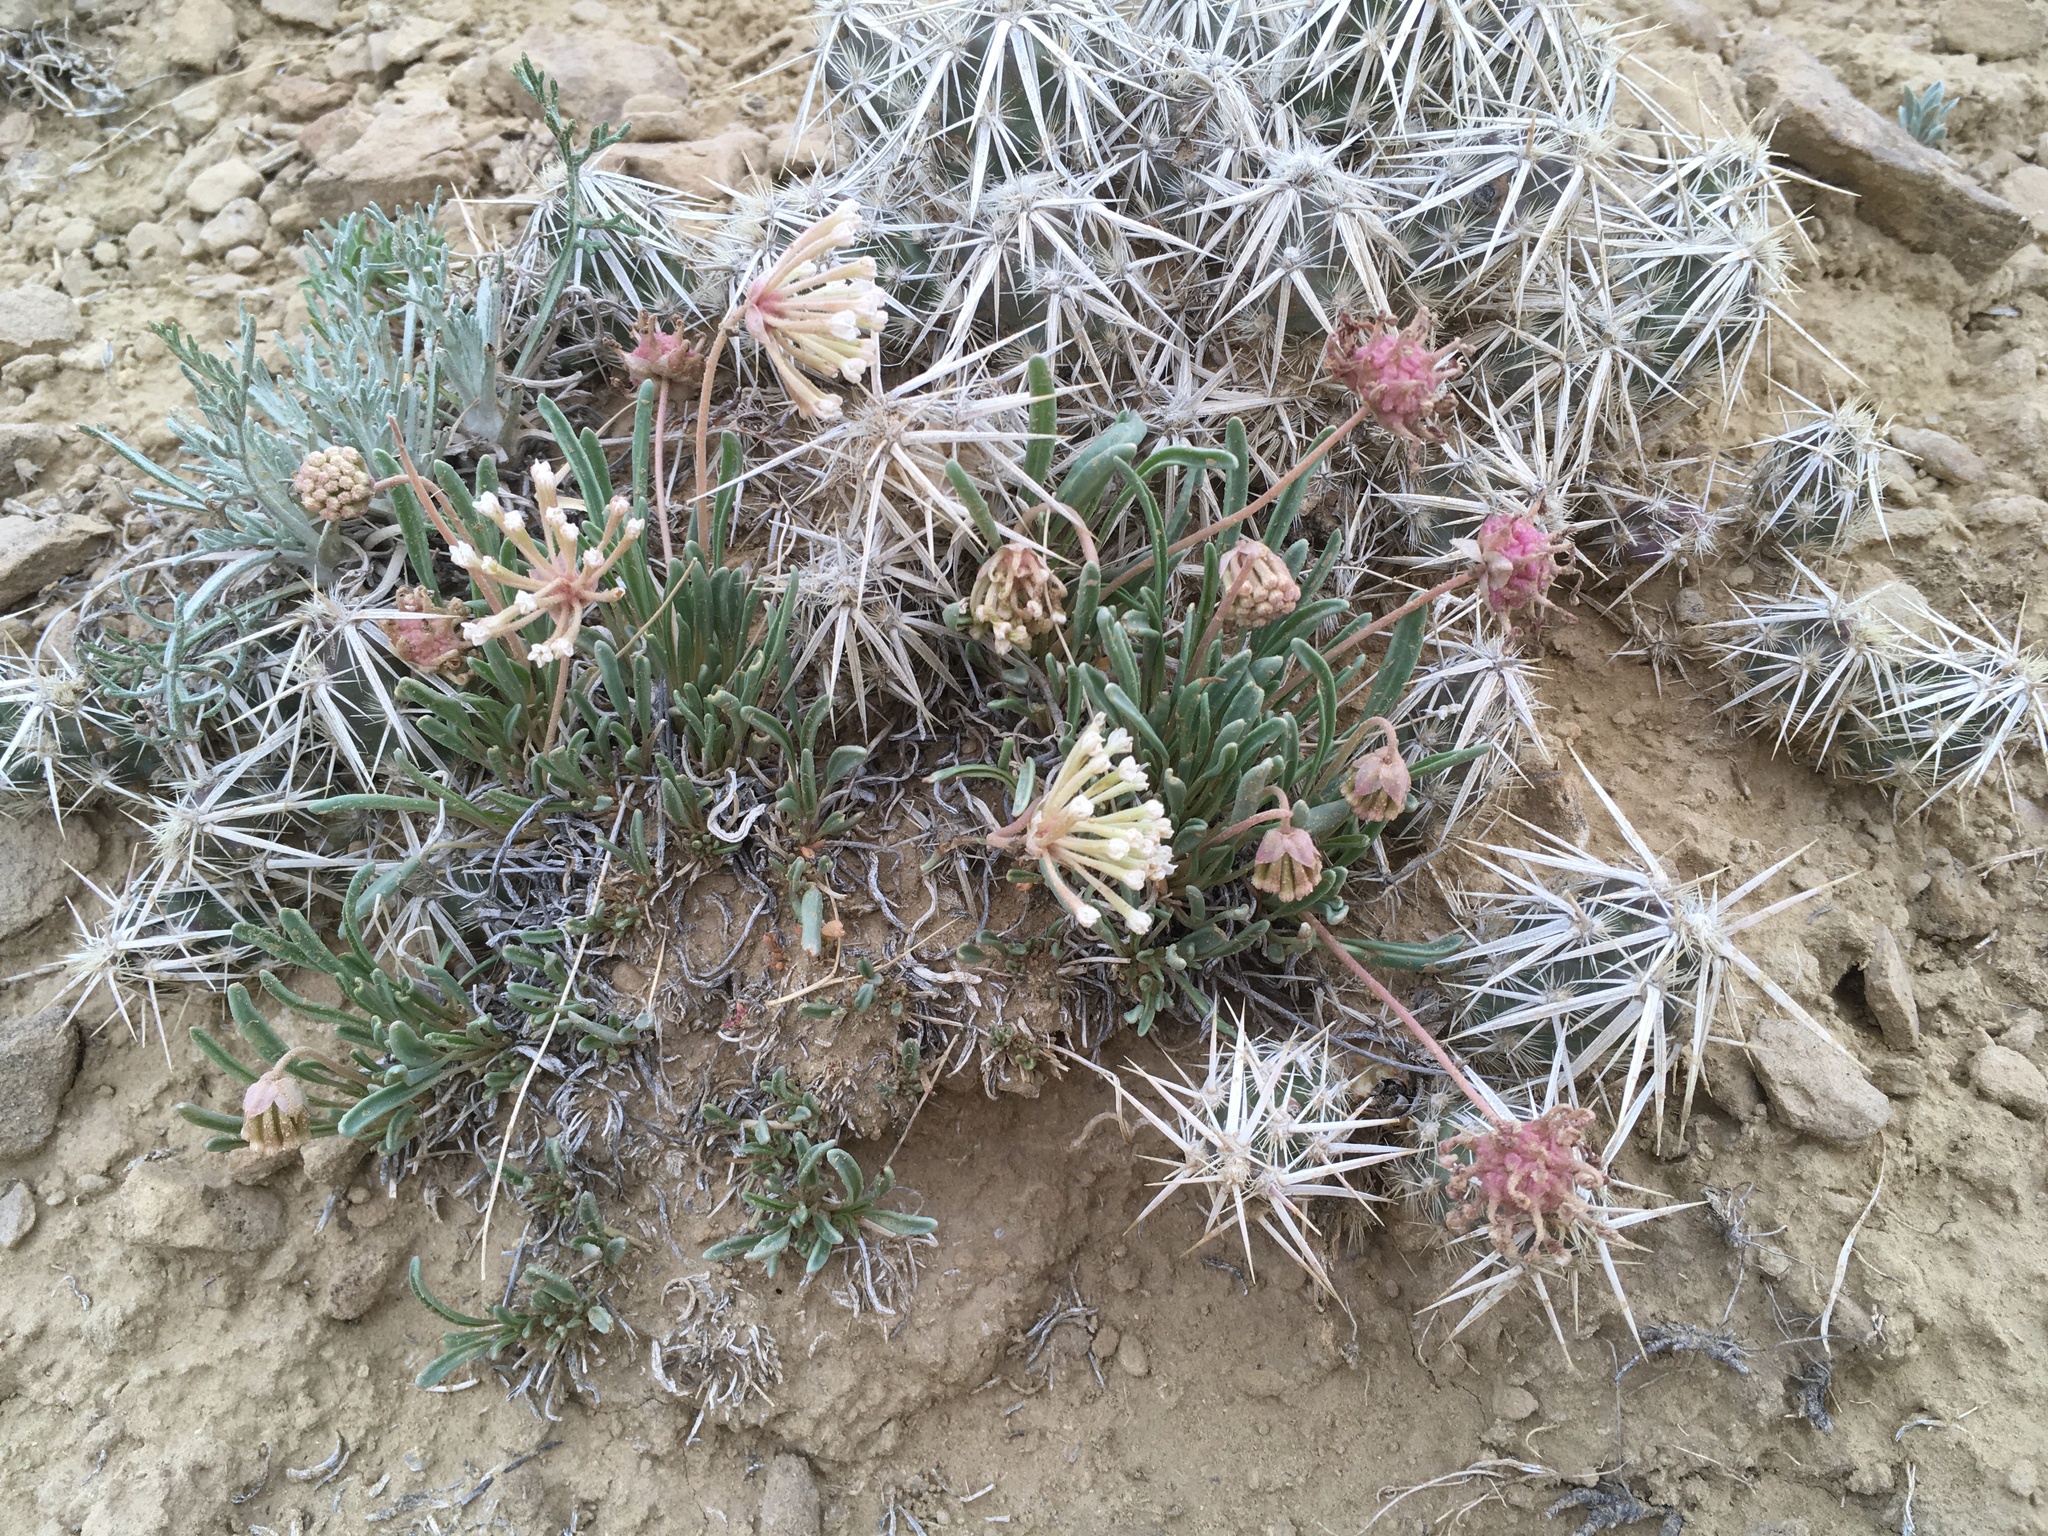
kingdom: Plantae
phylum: Tracheophyta
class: Magnoliopsida
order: Caryophyllales
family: Nyctaginaceae
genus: Abronia
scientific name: Abronia bigelovii
